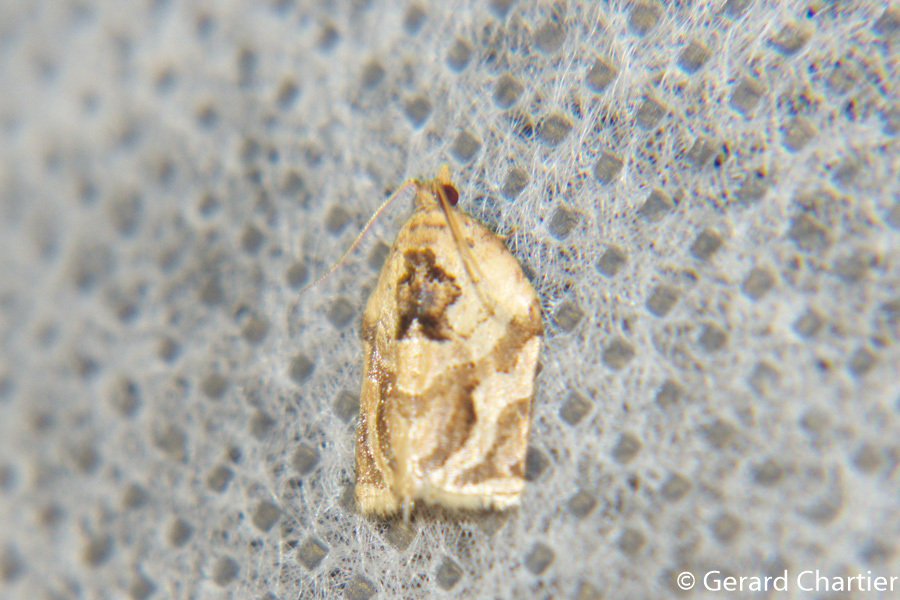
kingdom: Animalia
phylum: Arthropoda
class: Insecta
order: Lepidoptera
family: Tortricidae
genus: Adoxophyes
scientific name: Adoxophyes privatana
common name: Asian orchid tortrix
